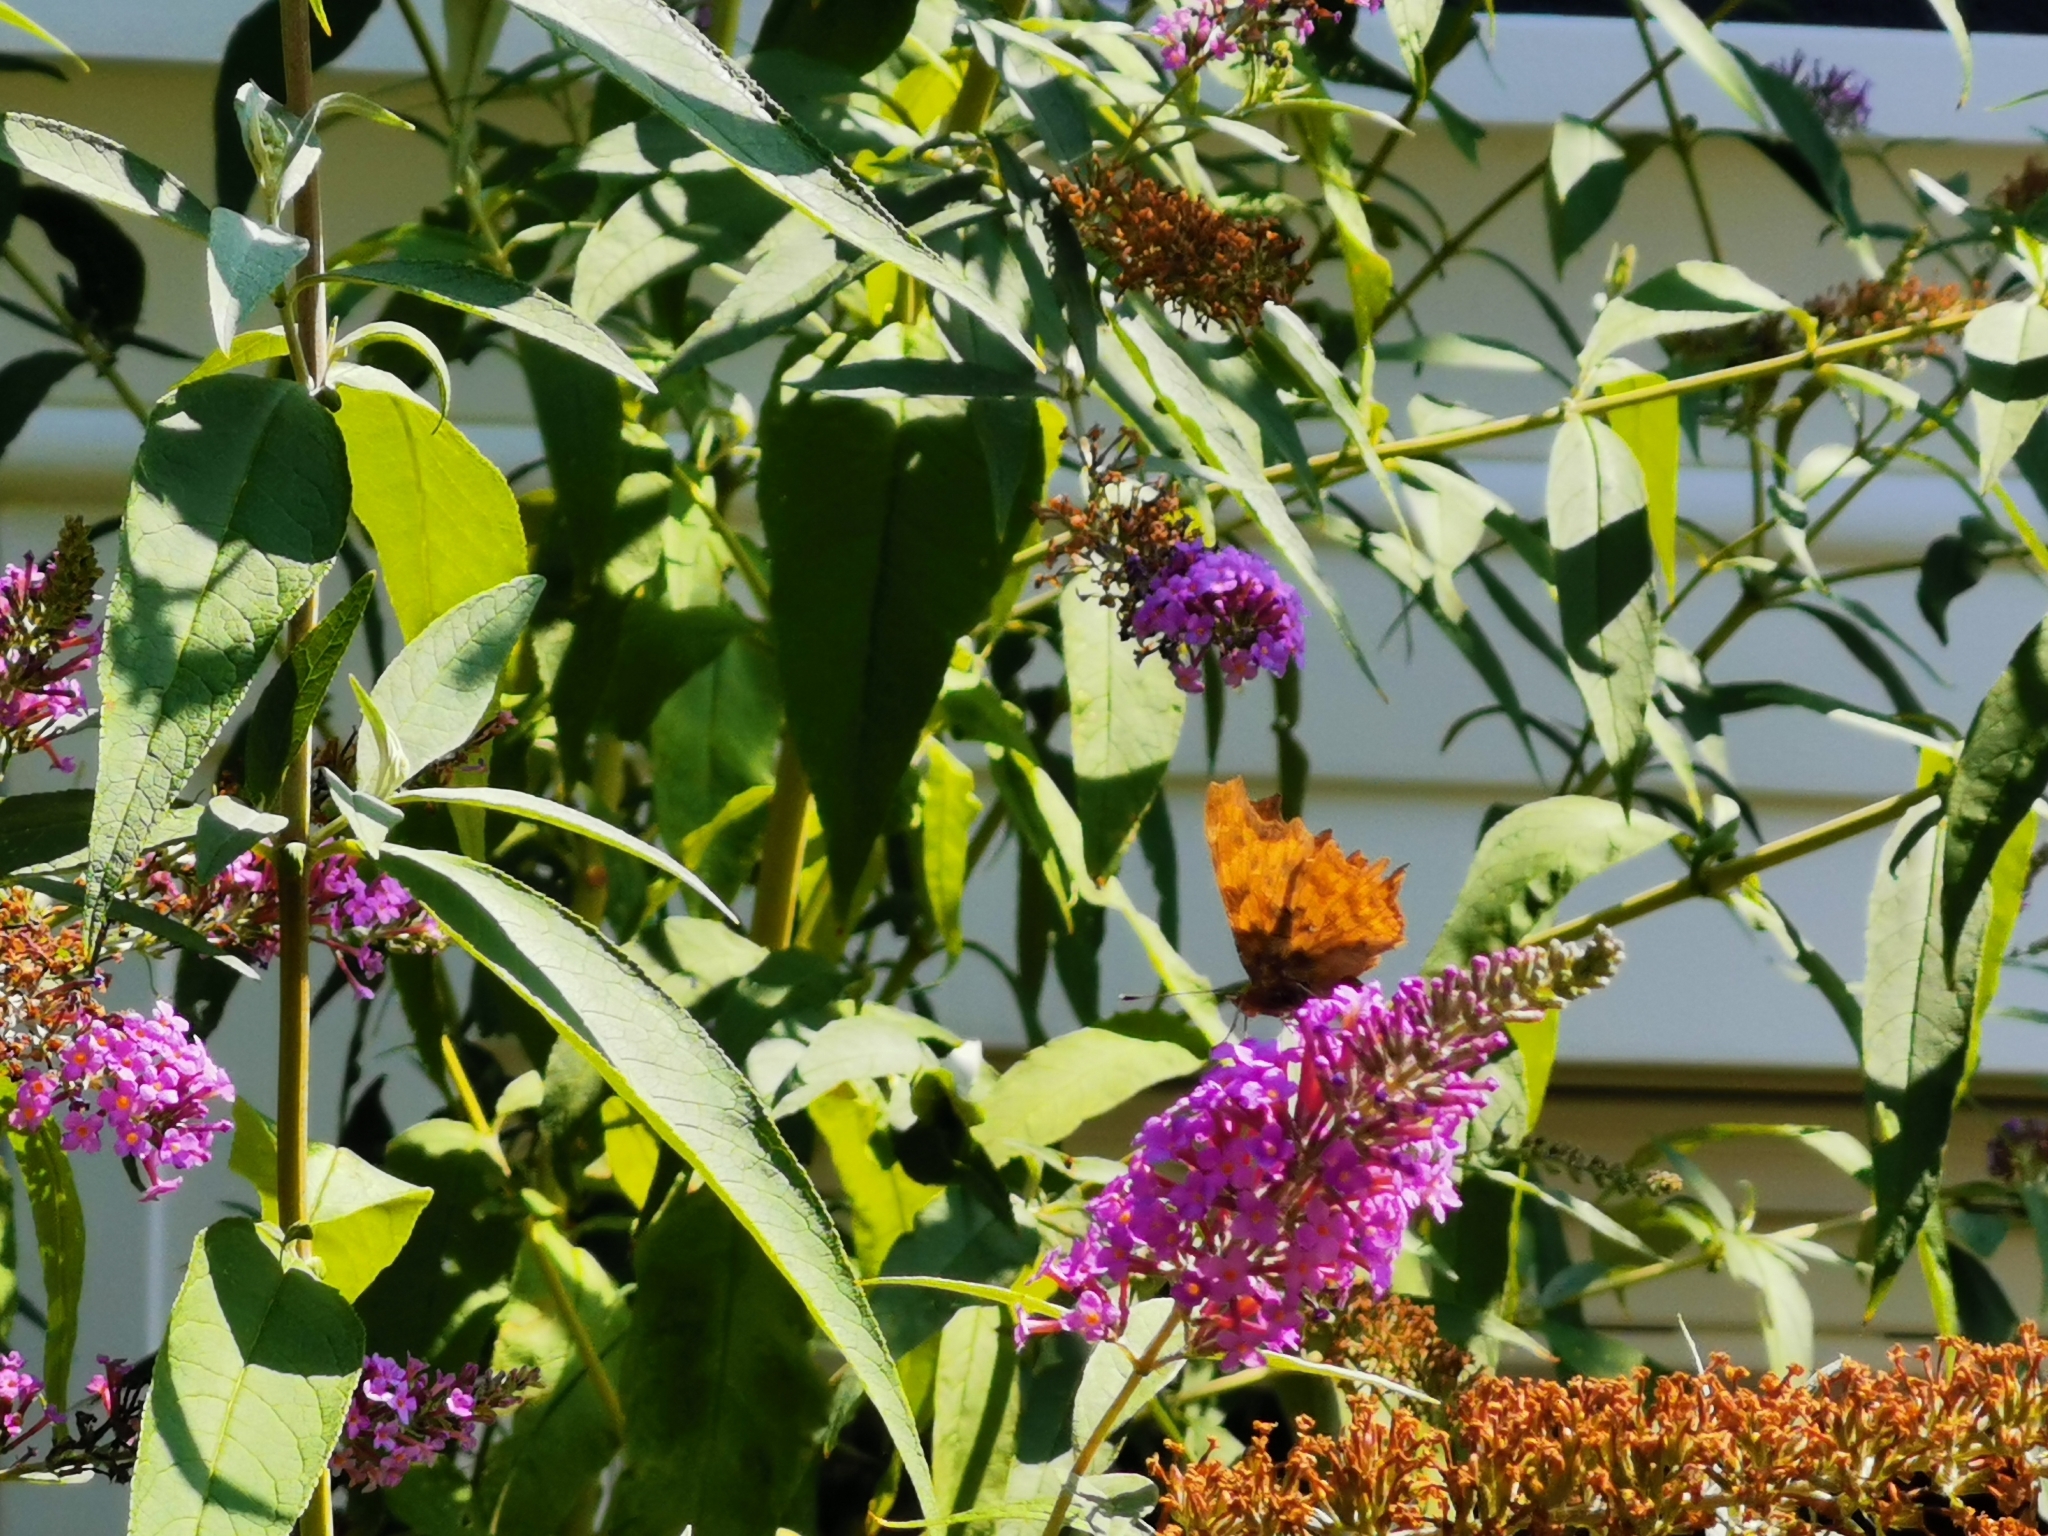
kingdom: Animalia
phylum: Arthropoda
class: Insecta
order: Lepidoptera
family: Nymphalidae
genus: Polygonia
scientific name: Polygonia c-album
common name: Comma
